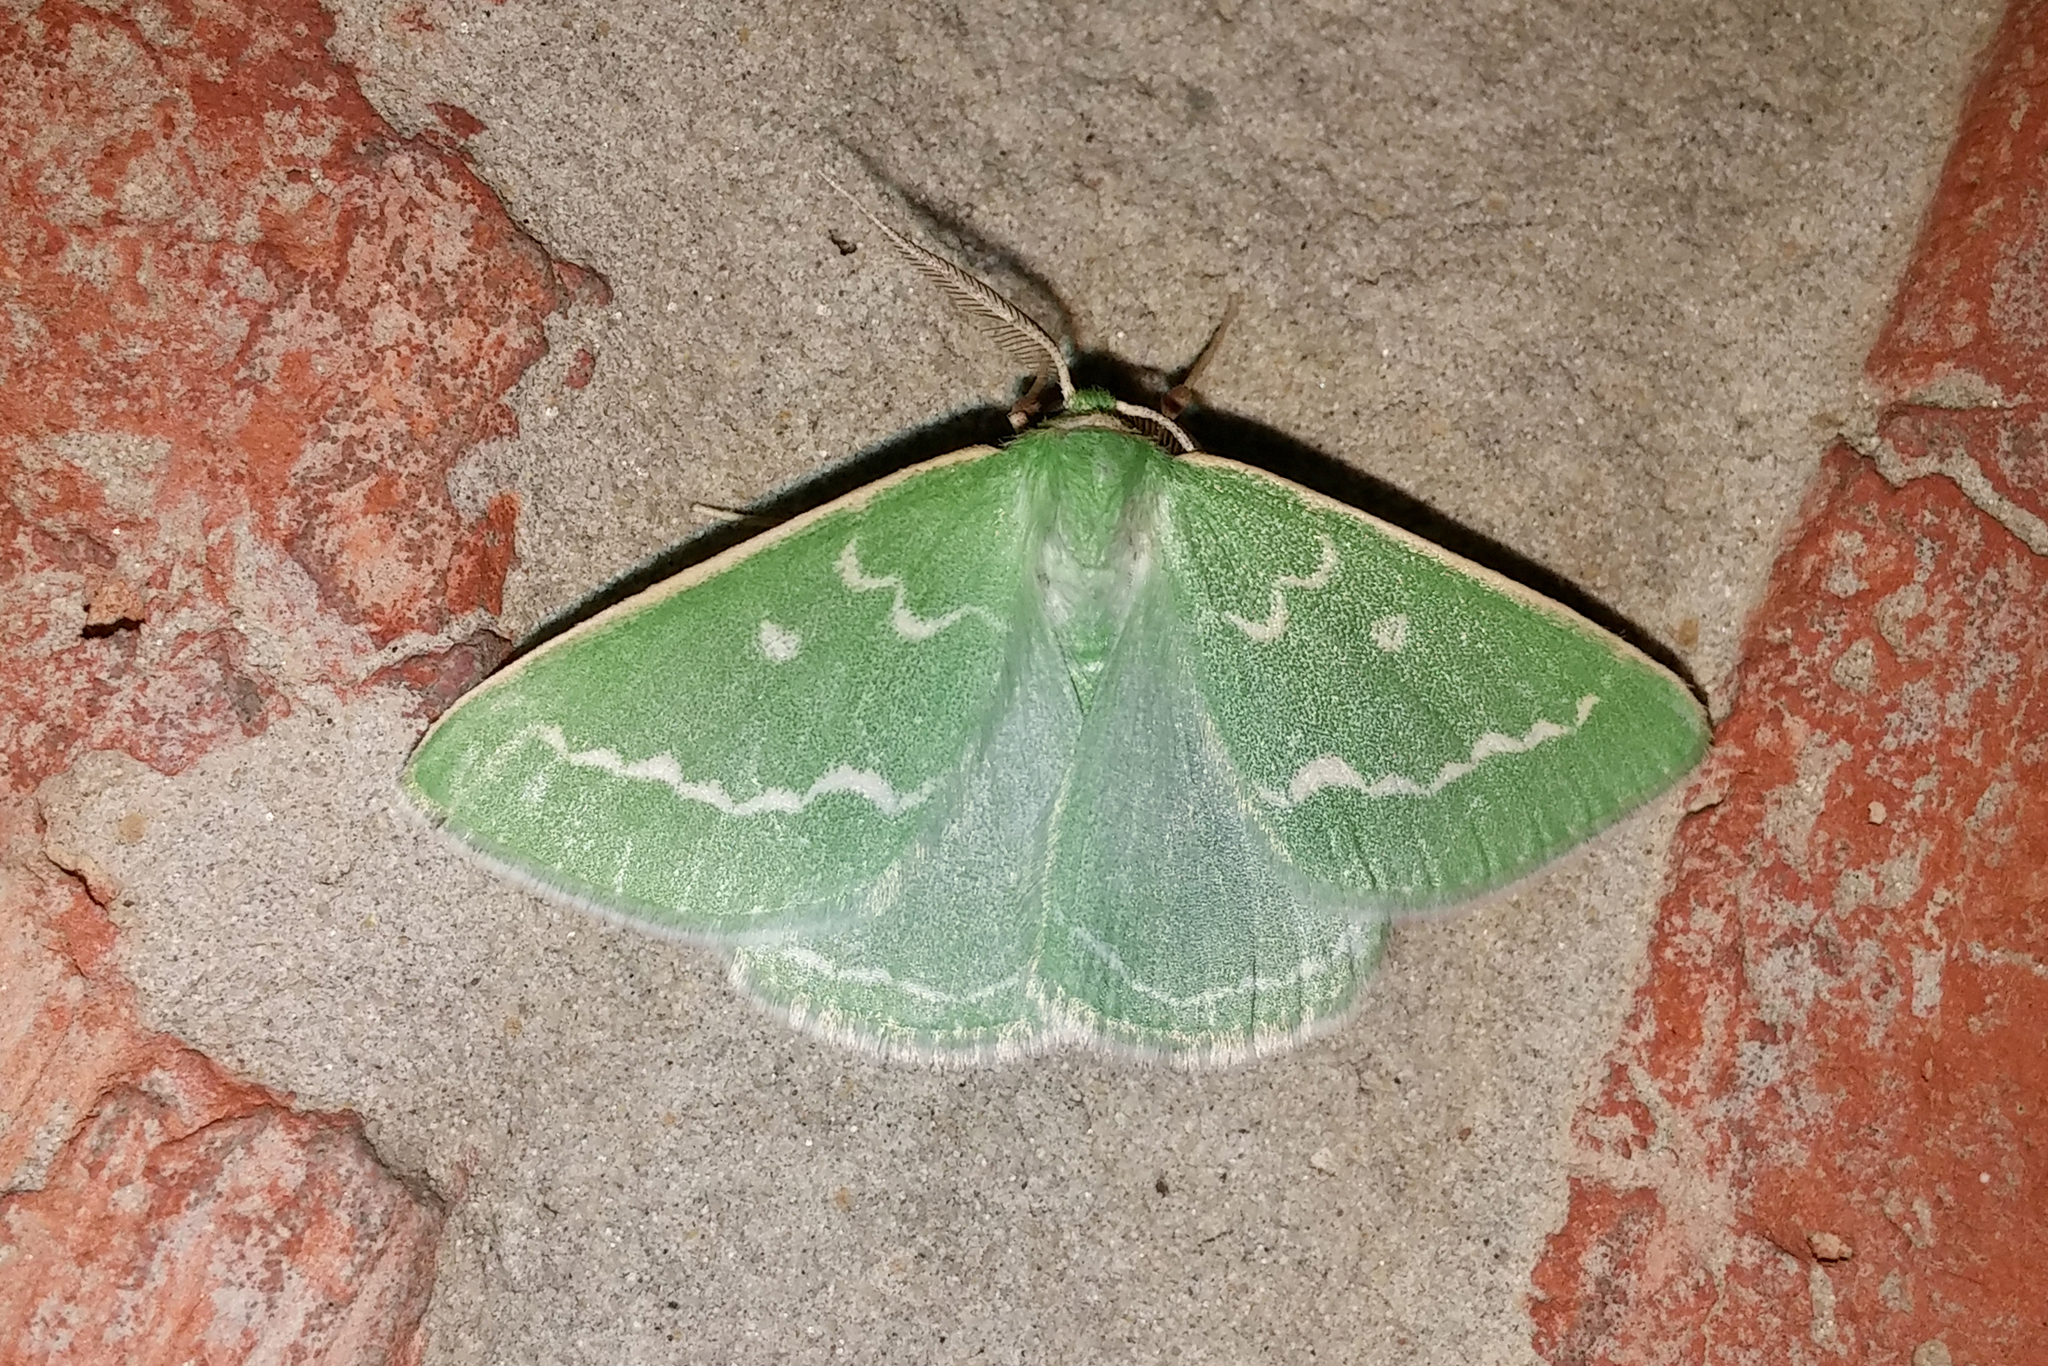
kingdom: Animalia
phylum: Arthropoda
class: Insecta
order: Lepidoptera
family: Geometridae
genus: Thetidia
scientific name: Thetidia smaragdaria
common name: Essex emerald
